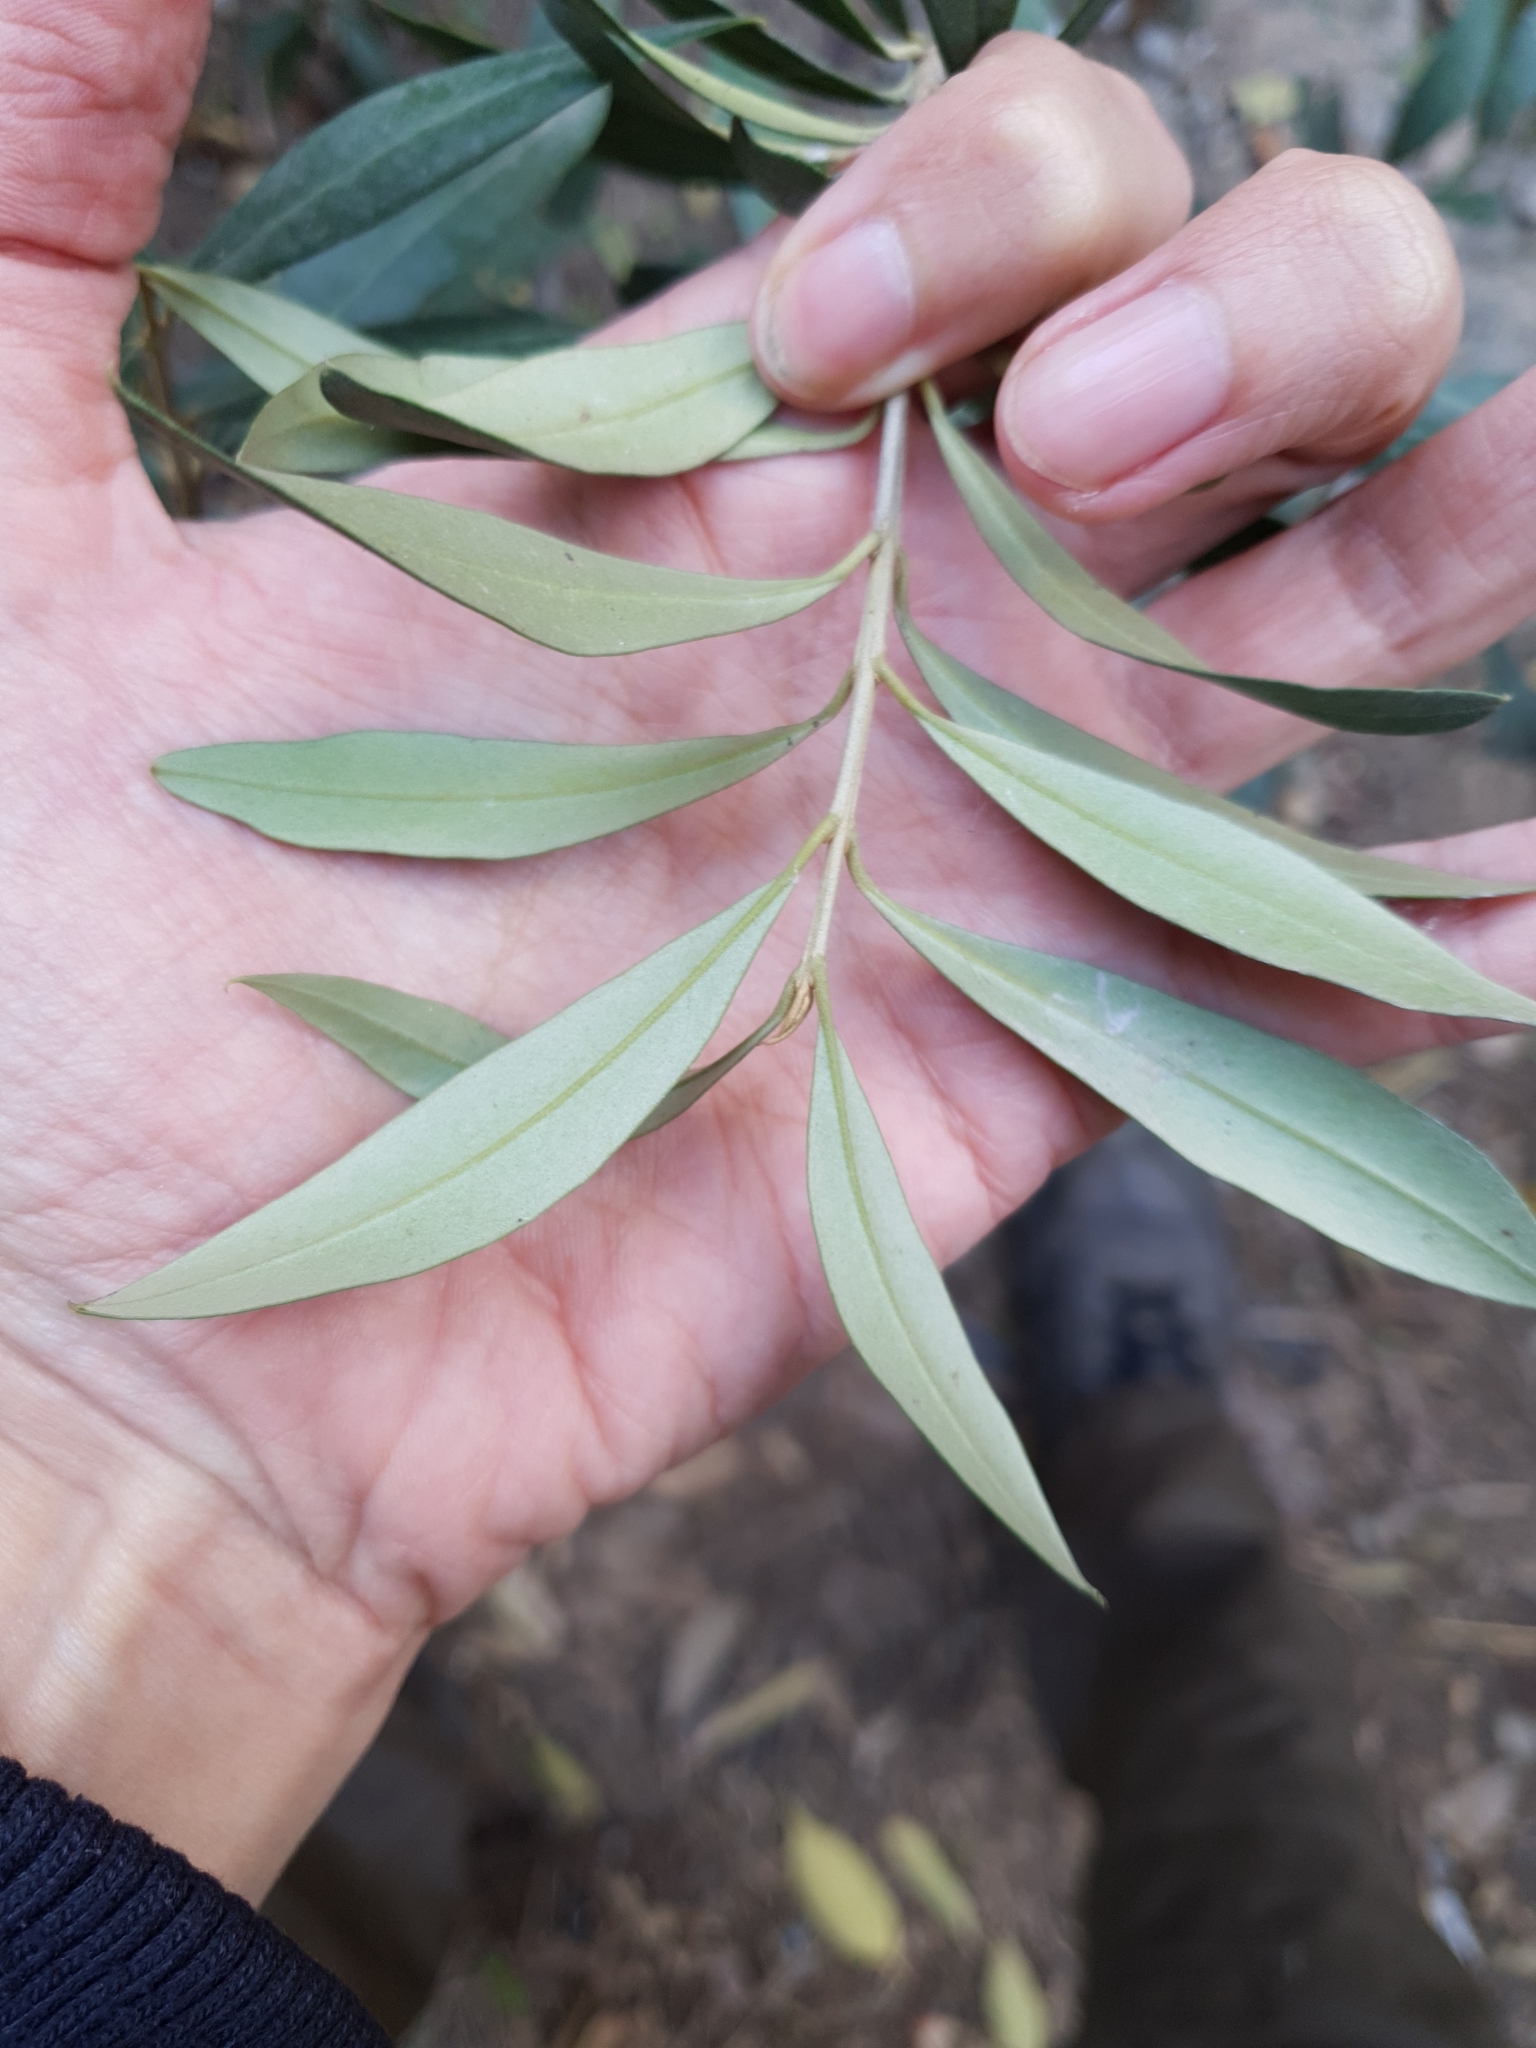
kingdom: Plantae
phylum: Tracheophyta
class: Magnoliopsida
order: Lamiales
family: Oleaceae
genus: Olea
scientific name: Olea europaea
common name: Olive
